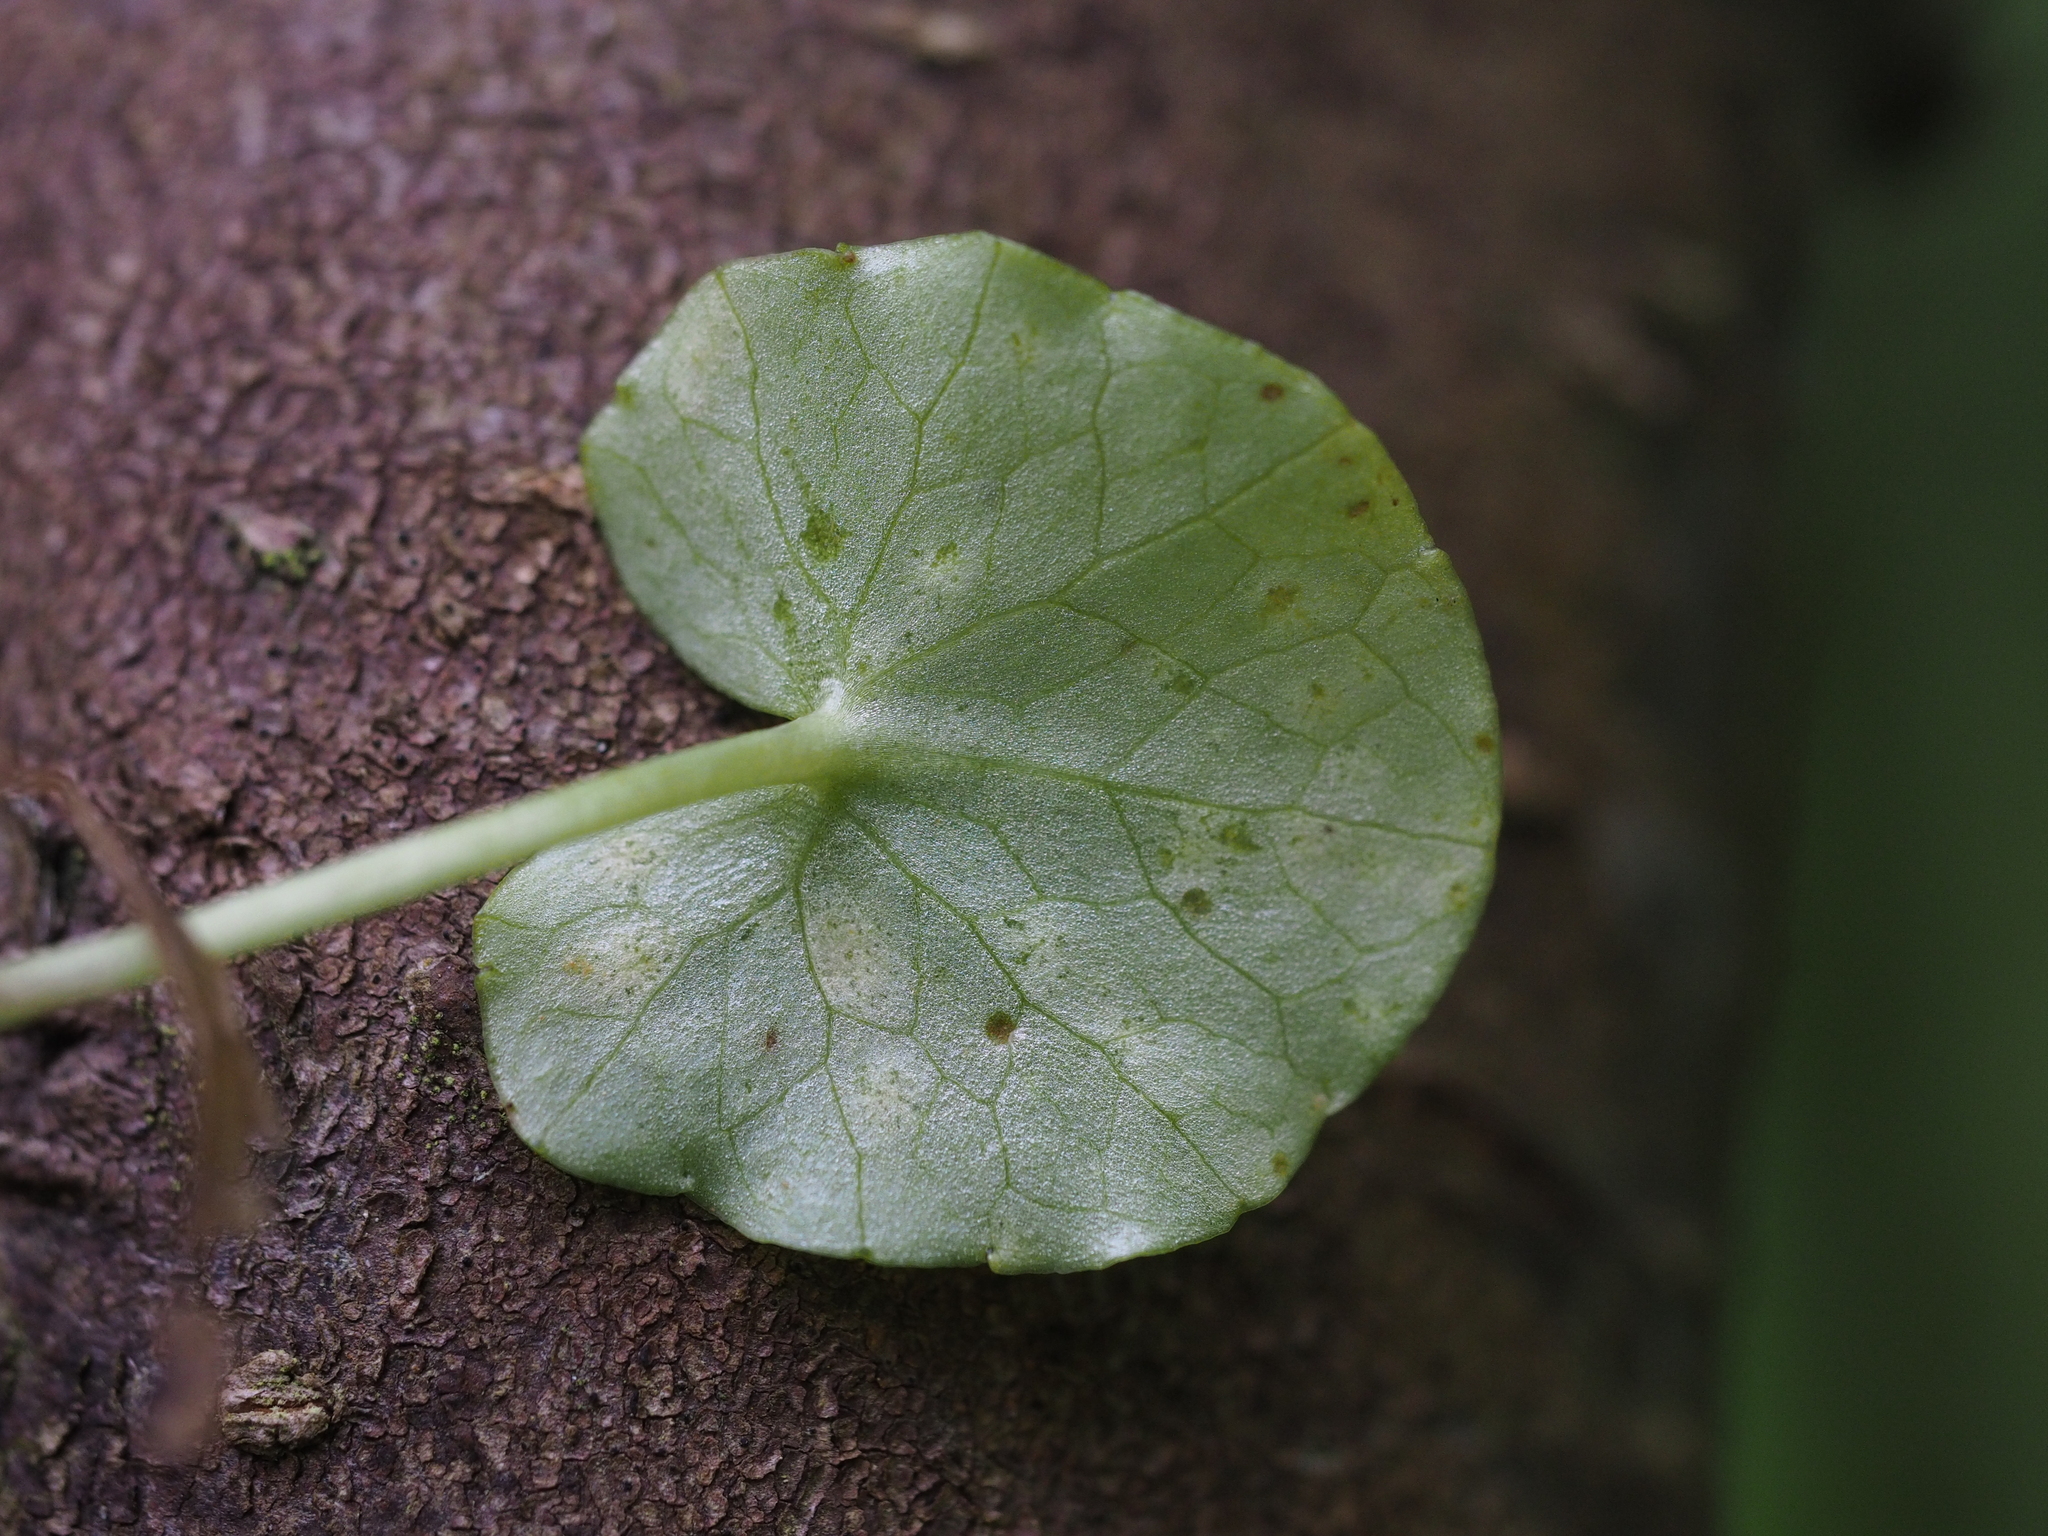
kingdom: Fungi
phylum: Basidiomycota
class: Exobasidiomycetes
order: Entylomatales
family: Entylomataceae
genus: Entyloma
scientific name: Entyloma ficariae
